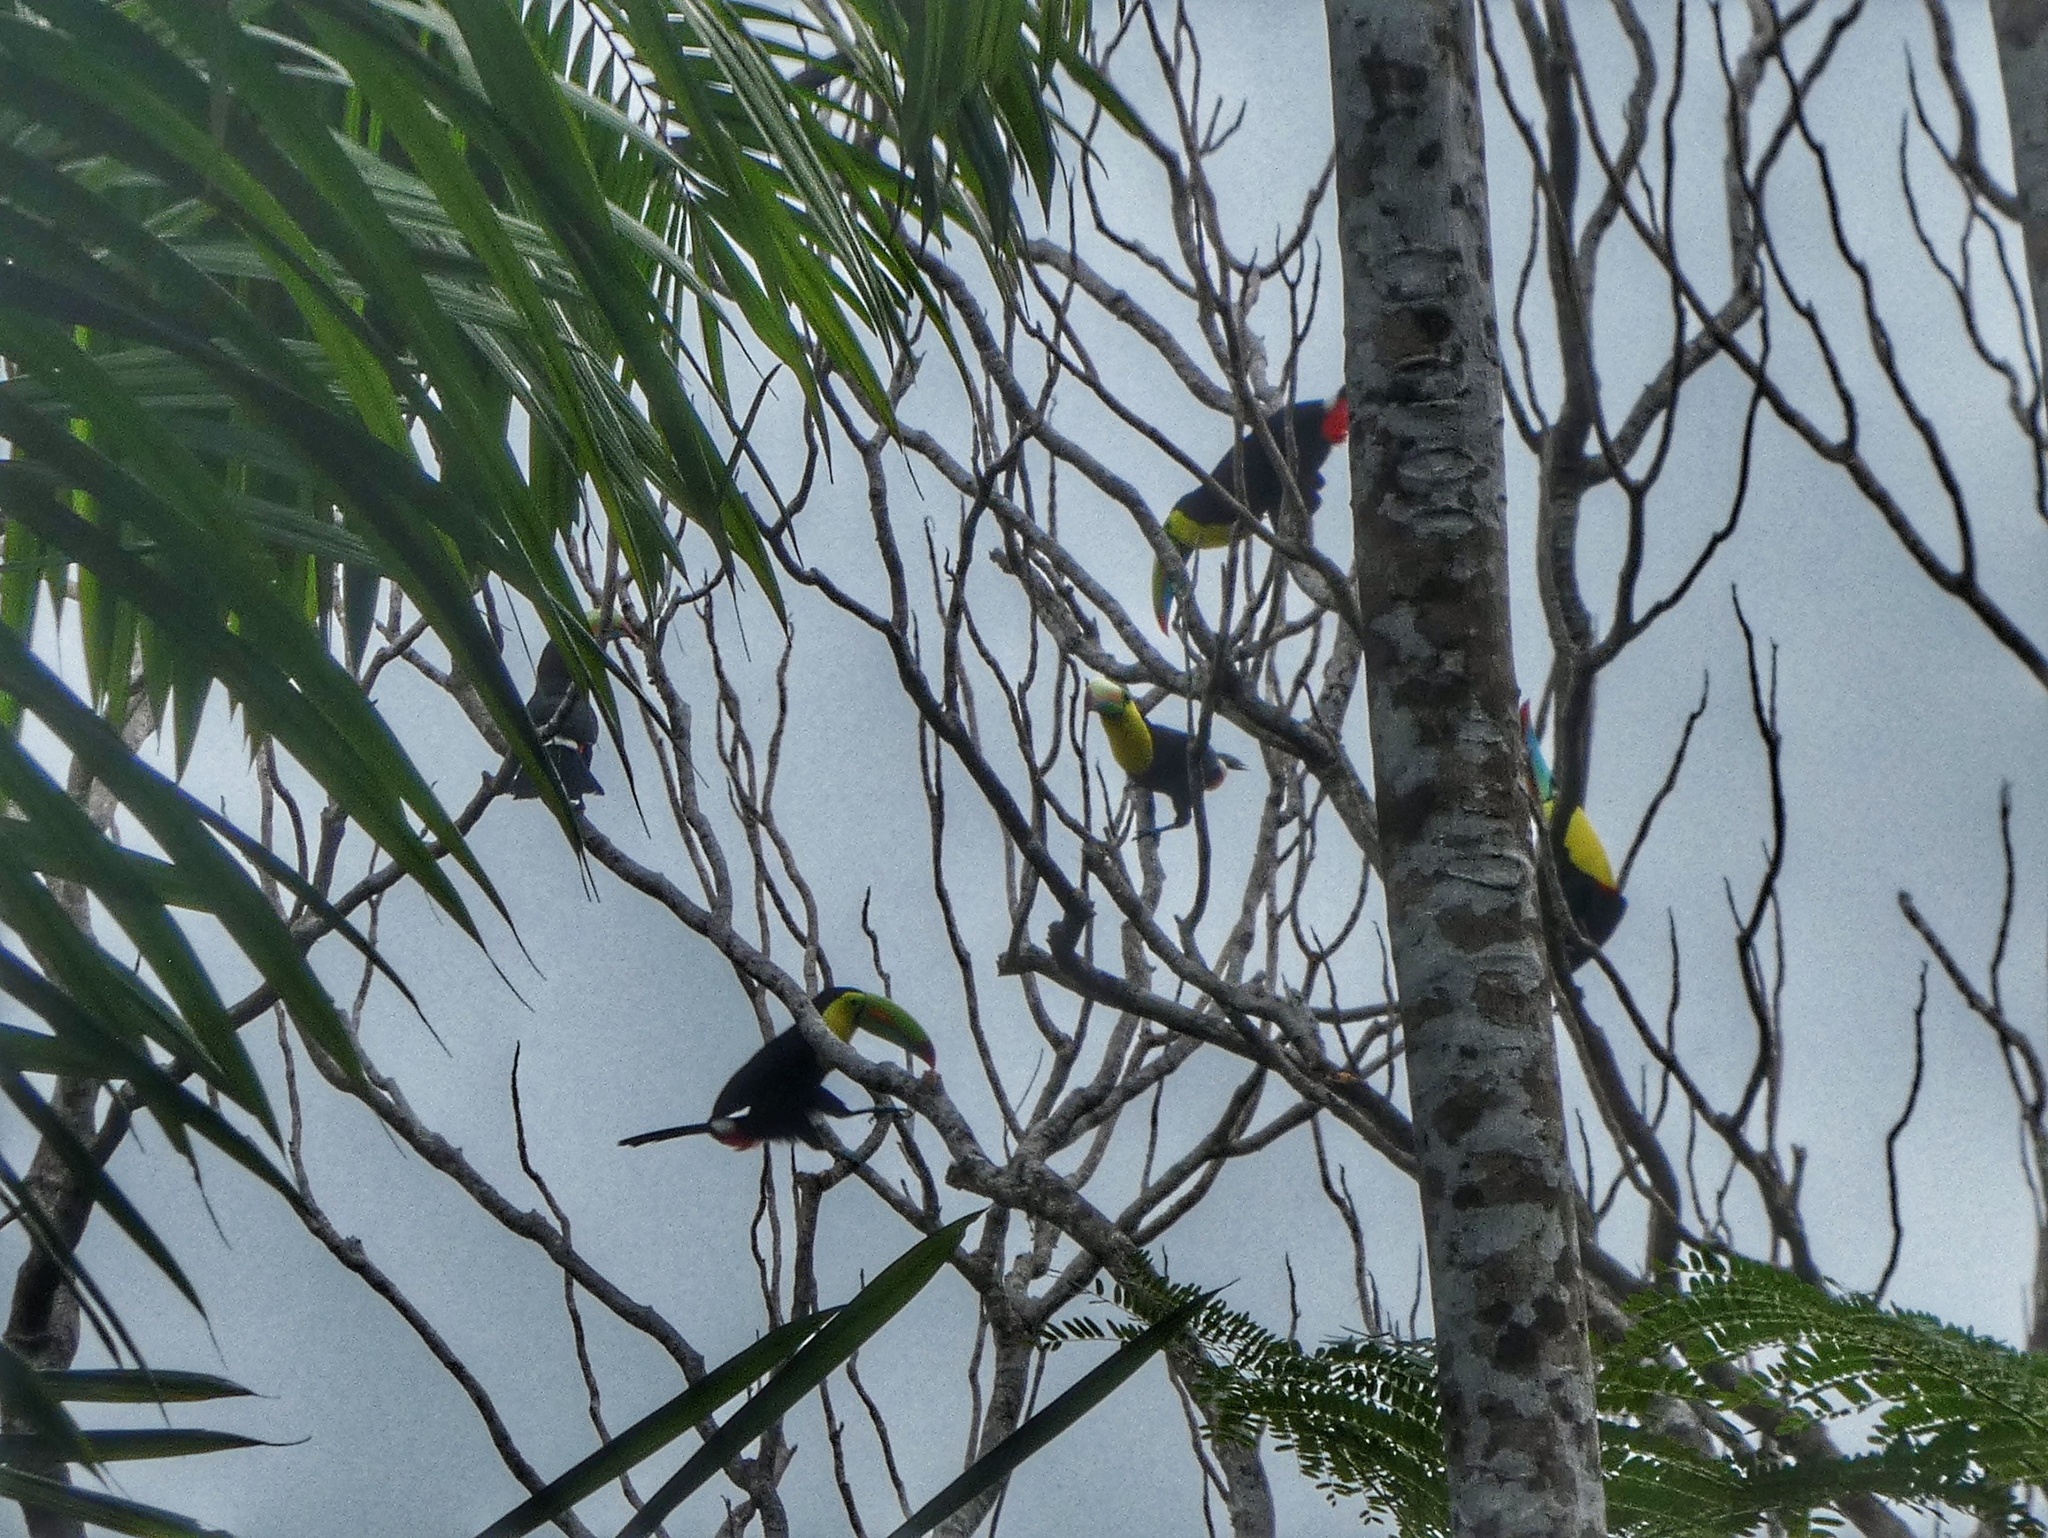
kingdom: Animalia
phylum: Chordata
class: Aves
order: Piciformes
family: Ramphastidae
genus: Ramphastos
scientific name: Ramphastos sulfuratus
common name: Keel-billed toucan
